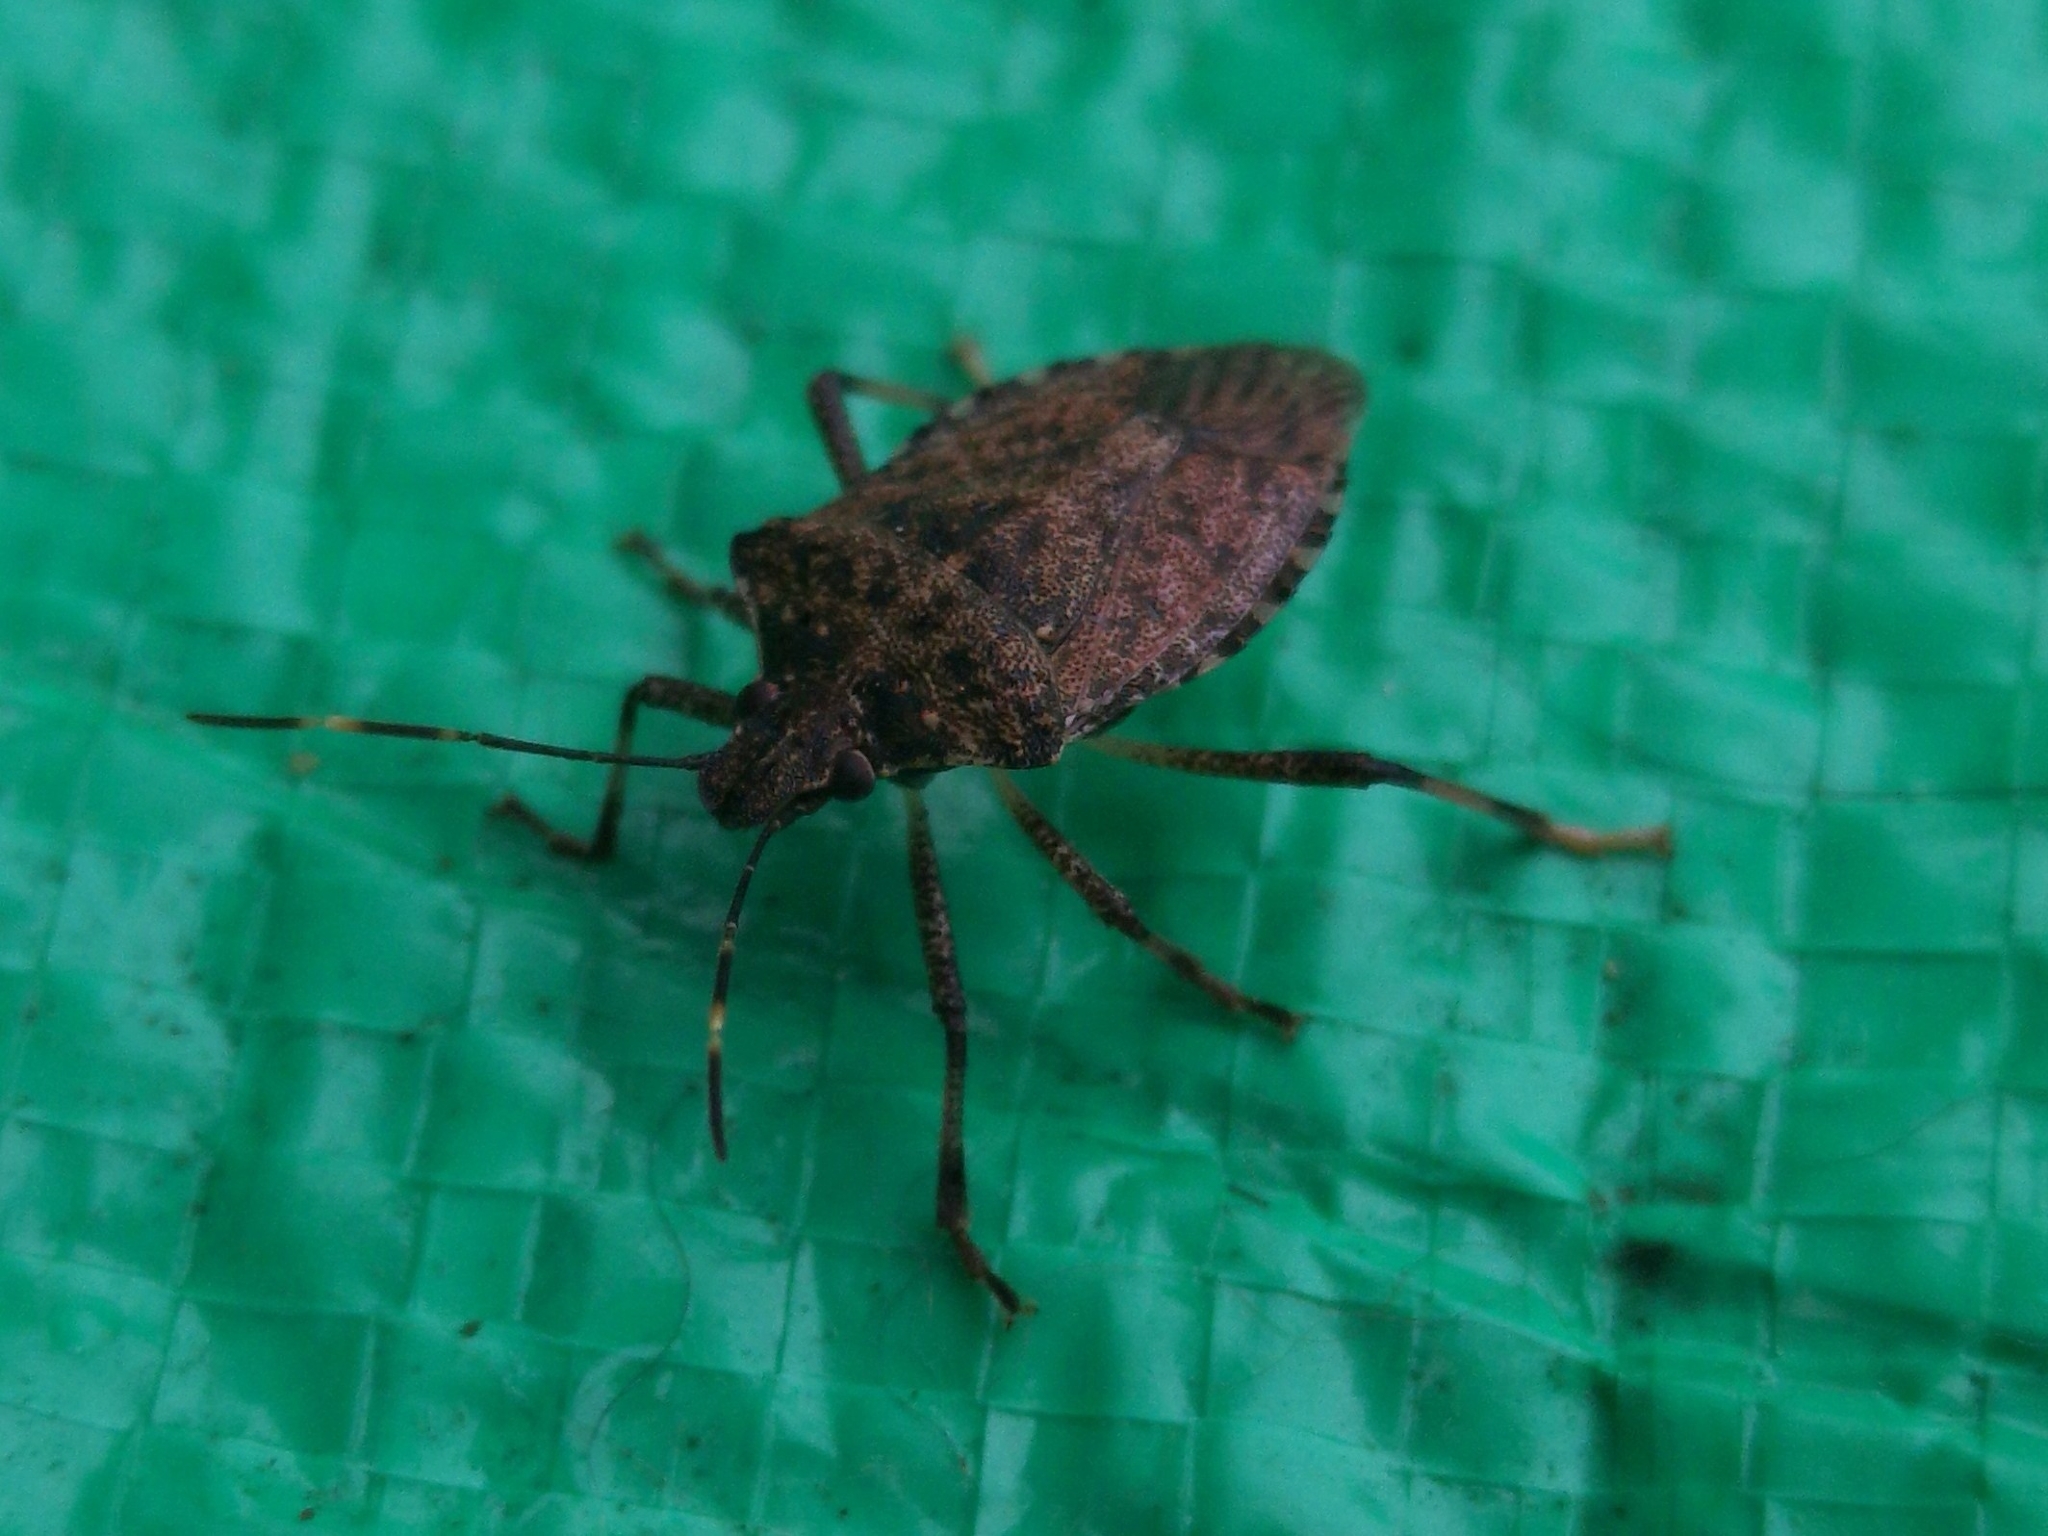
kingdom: Animalia
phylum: Arthropoda
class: Insecta
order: Hemiptera
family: Pentatomidae
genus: Halyomorpha
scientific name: Halyomorpha halys
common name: Brown marmorated stink bug
